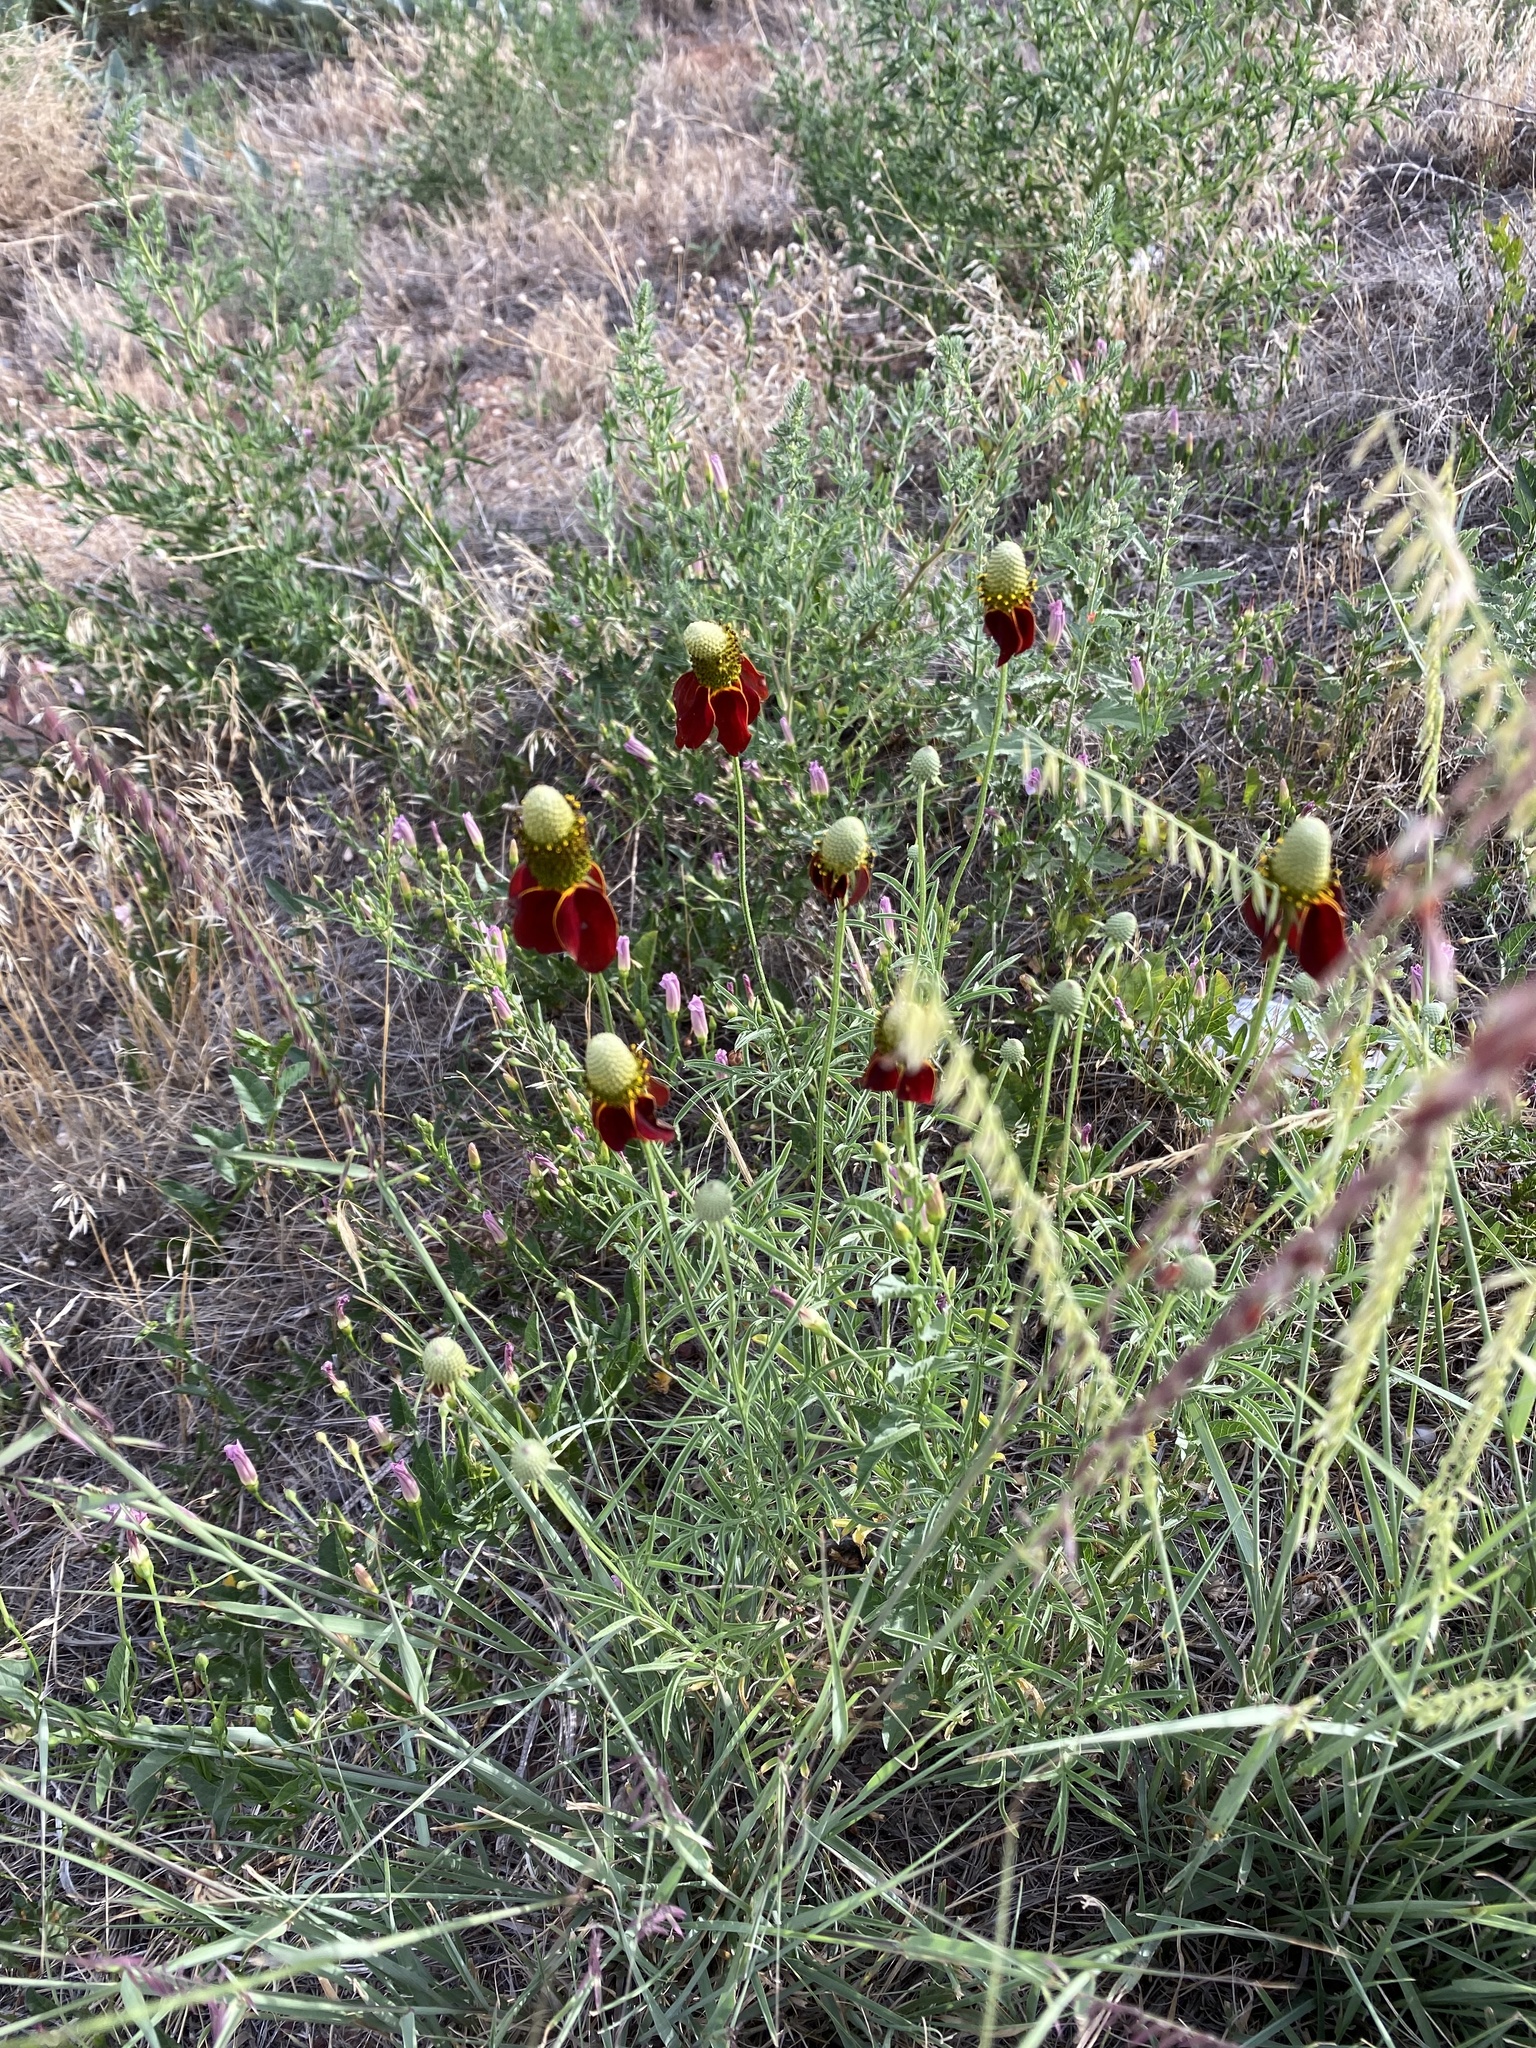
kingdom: Plantae
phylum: Tracheophyta
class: Magnoliopsida
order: Asterales
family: Asteraceae
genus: Ratibida
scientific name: Ratibida columnifera
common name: Prairie coneflower
